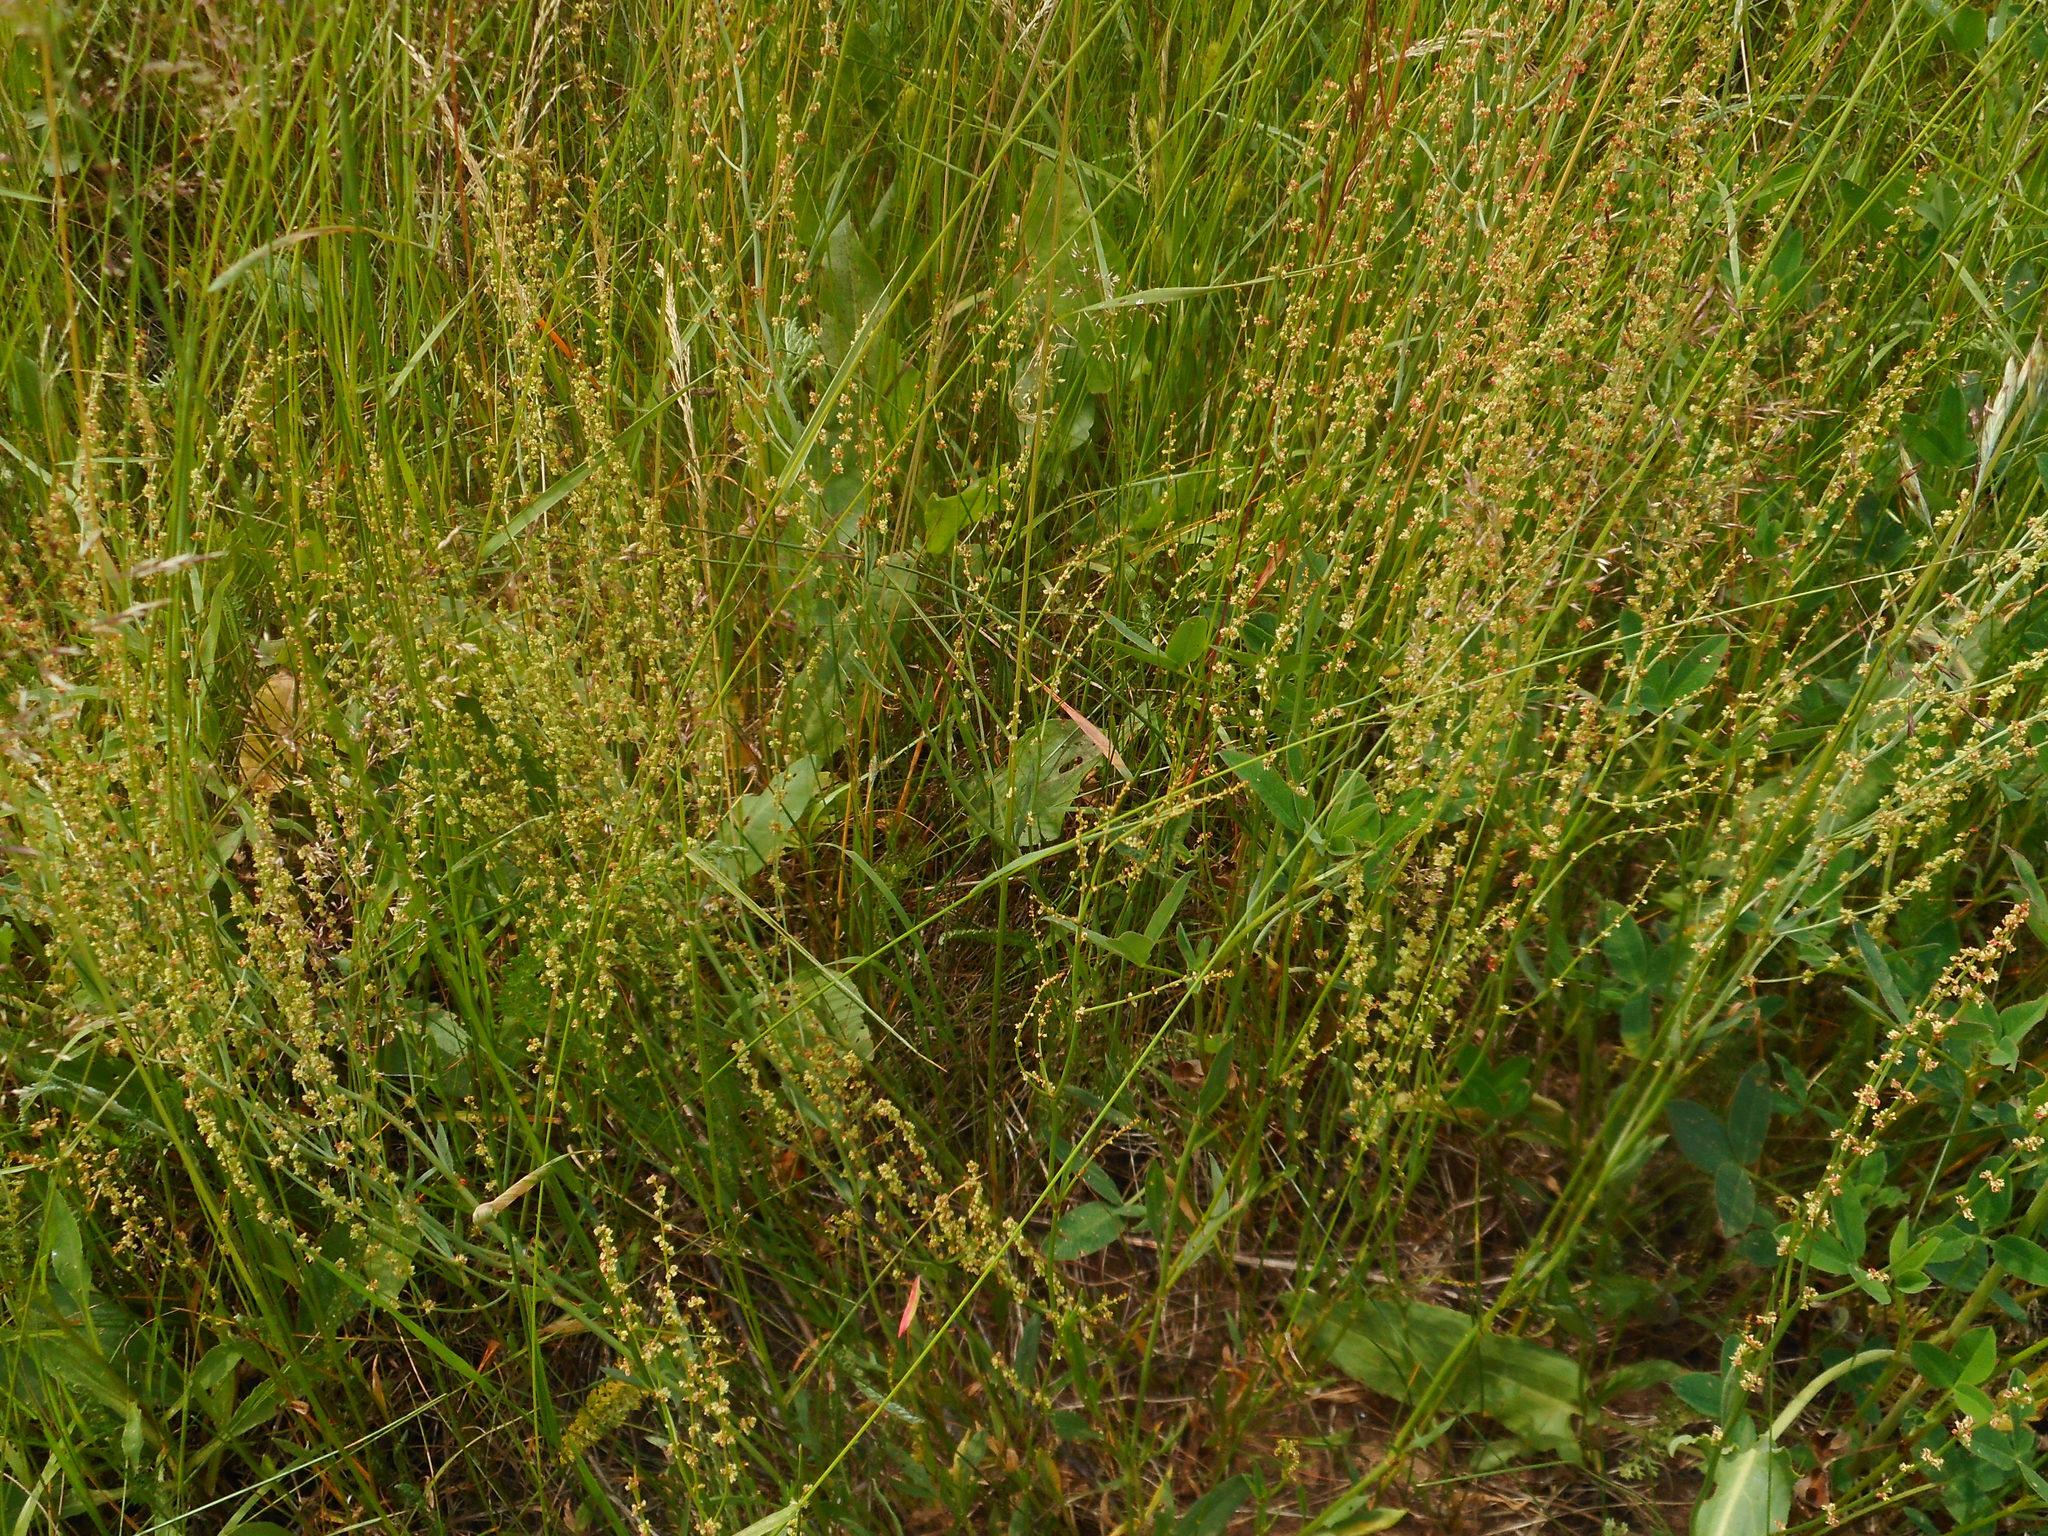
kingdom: Plantae
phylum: Tracheophyta
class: Magnoliopsida
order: Caryophyllales
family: Polygonaceae
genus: Rumex
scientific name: Rumex acetosella
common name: Common sheep sorrel
